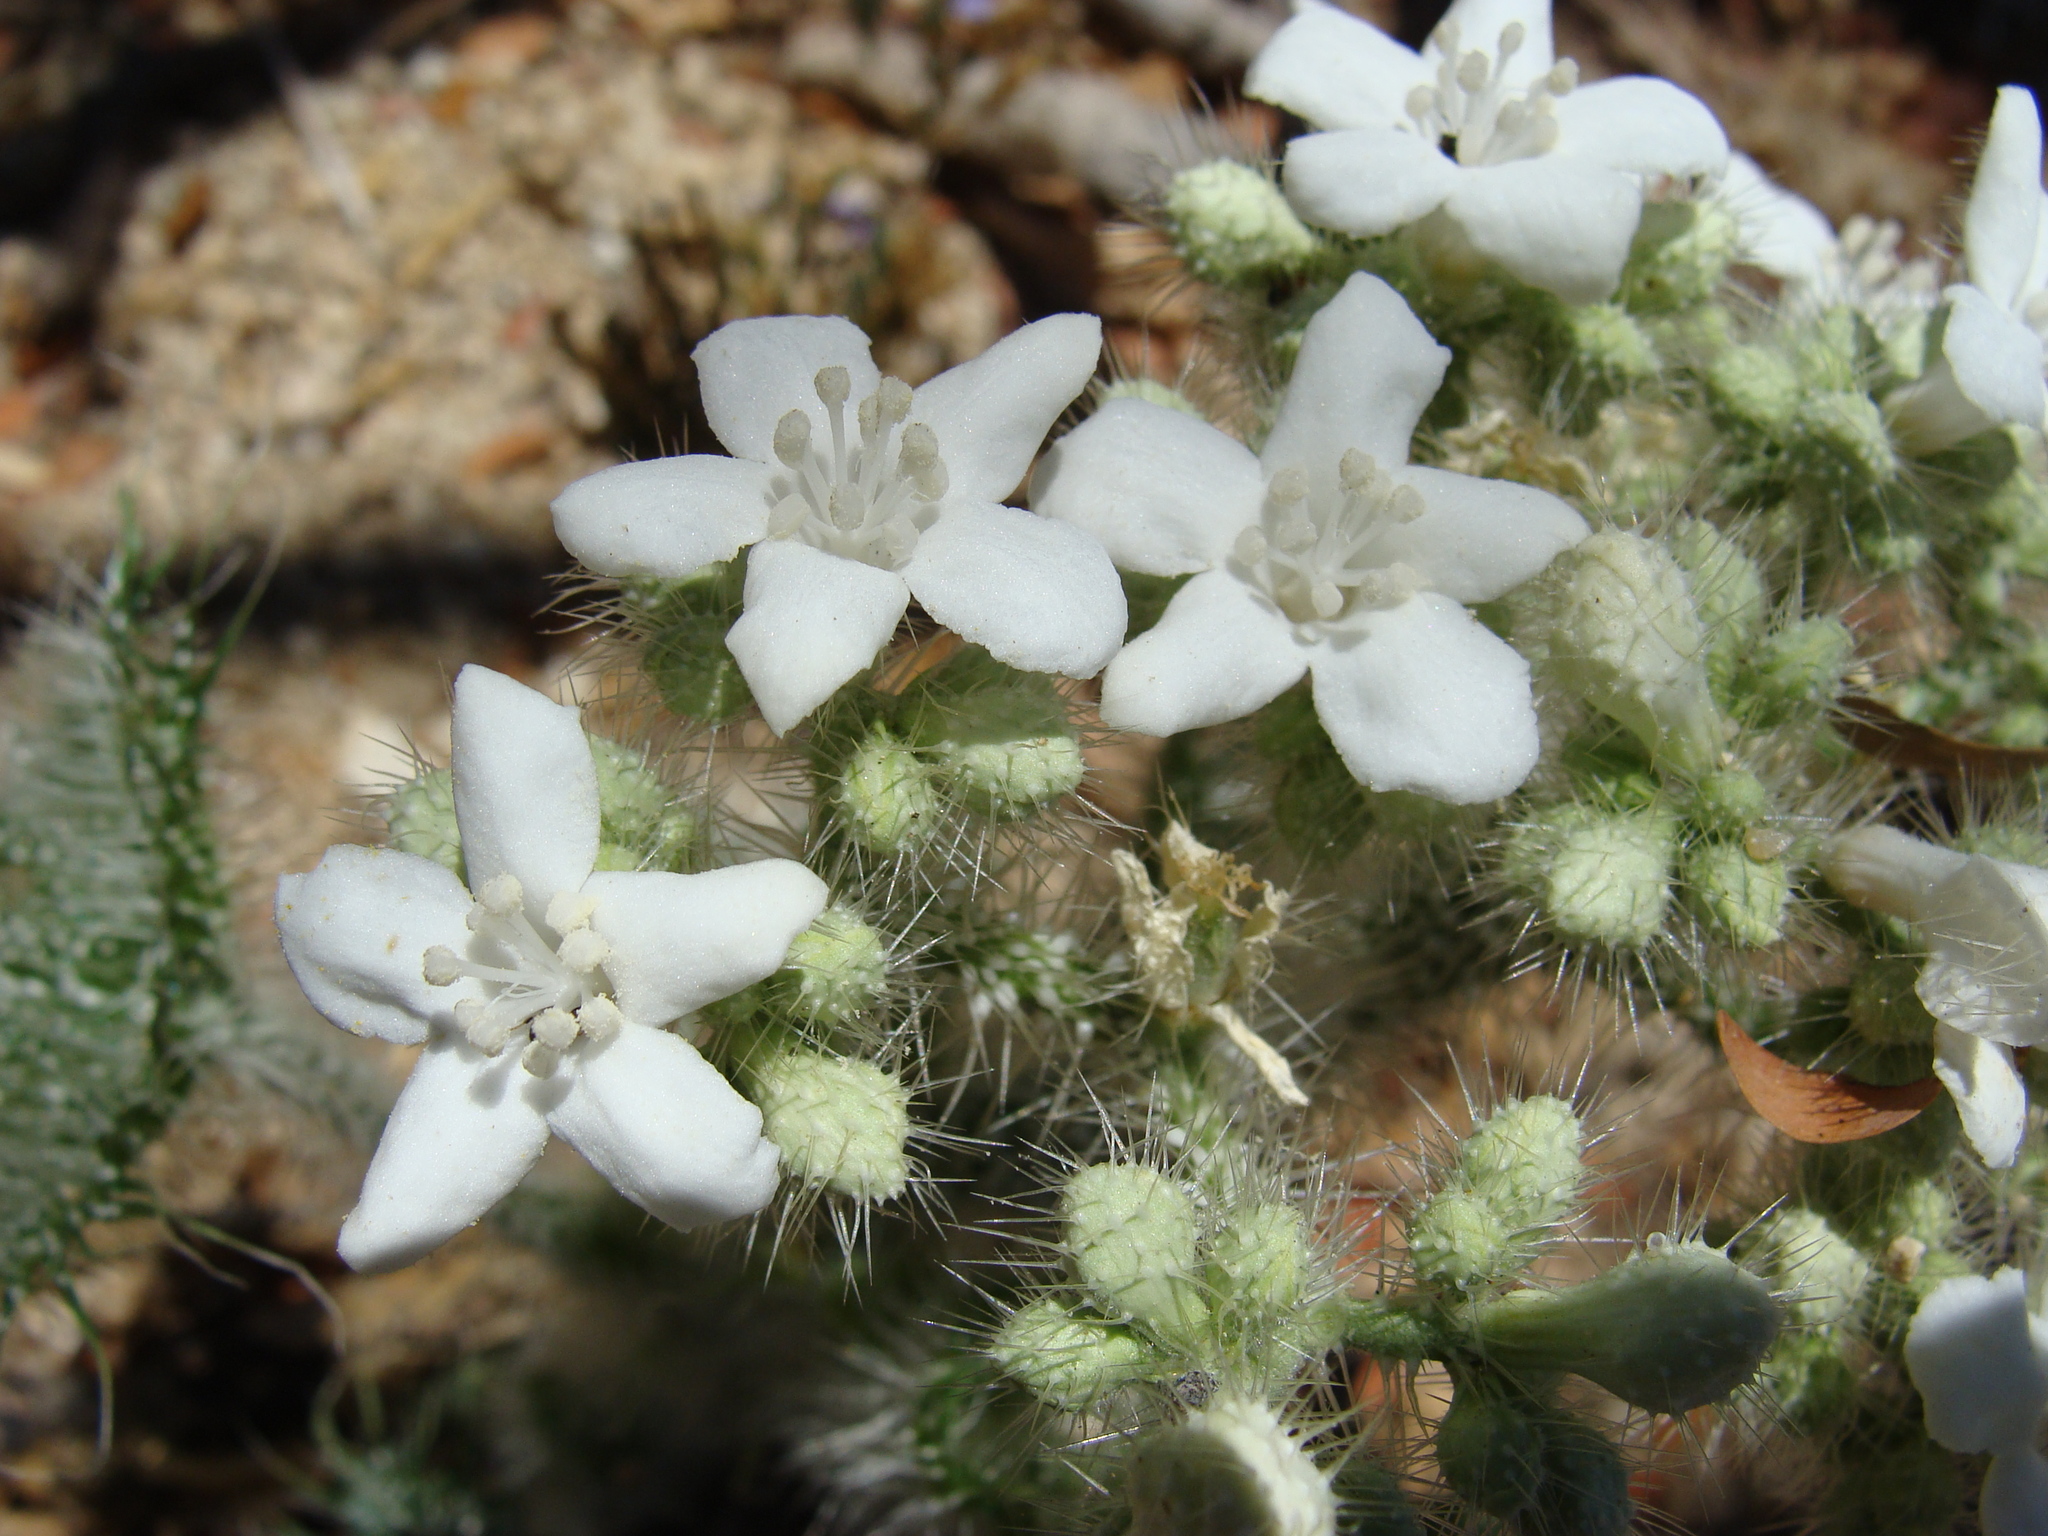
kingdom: Plantae
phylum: Tracheophyta
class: Magnoliopsida
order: Malpighiales
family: Euphorbiaceae
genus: Cnidoscolus
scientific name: Cnidoscolus maculatus
